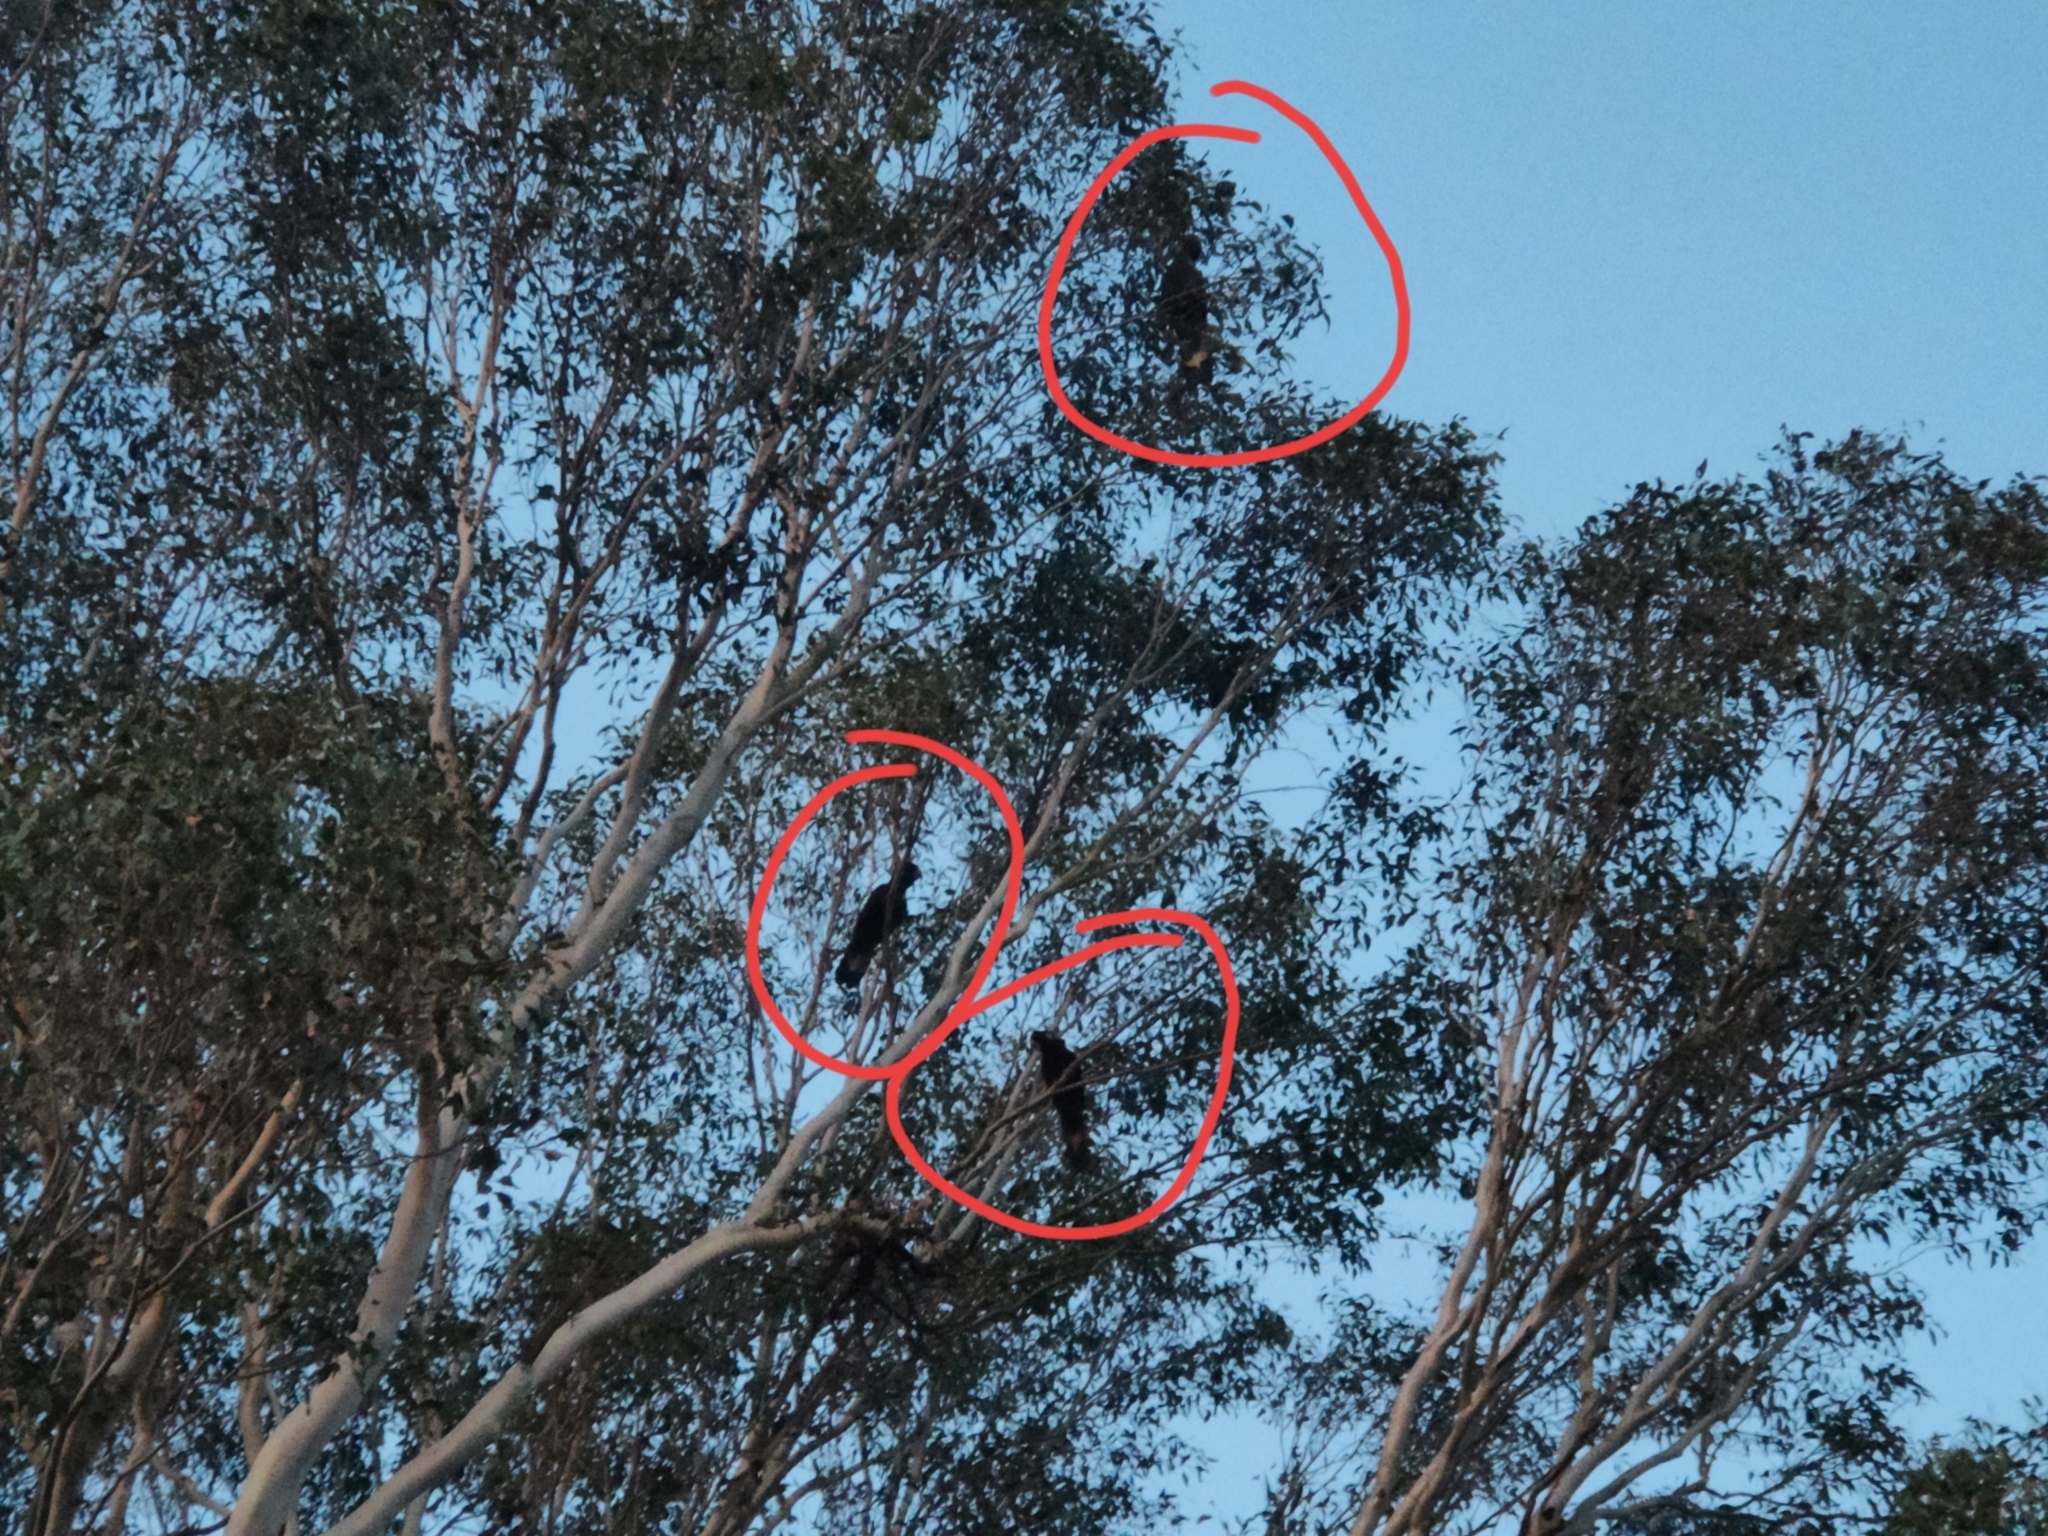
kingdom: Animalia
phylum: Chordata
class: Aves
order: Psittaciformes
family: Cacatuidae
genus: Zanda
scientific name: Zanda funerea
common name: Yellow-tailed black-cockatoo
